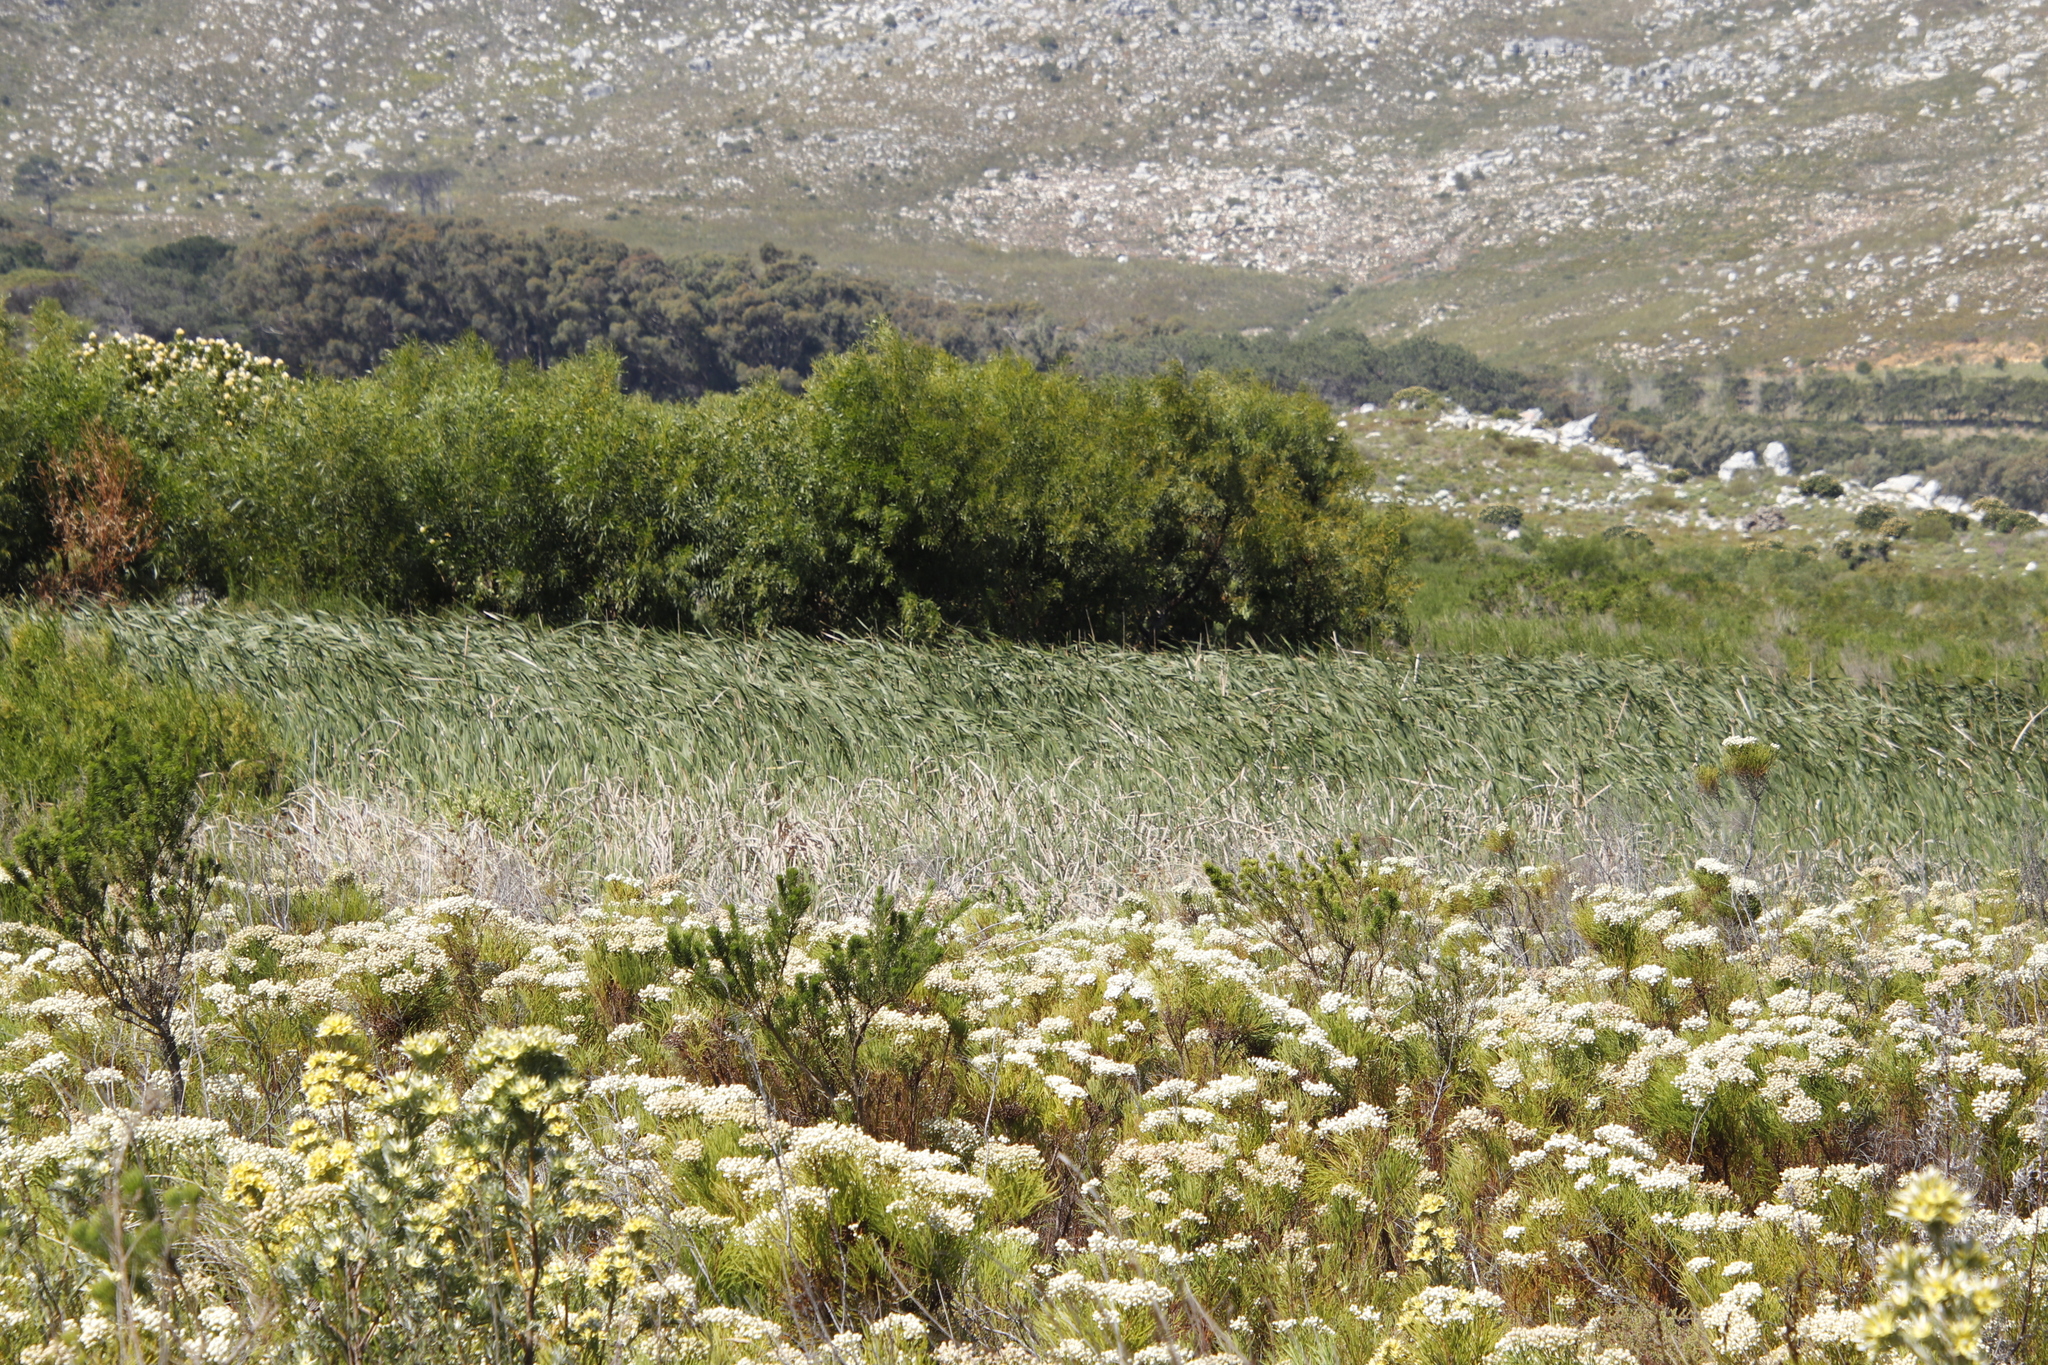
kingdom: Plantae
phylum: Tracheophyta
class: Liliopsida
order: Poales
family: Poaceae
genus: Phragmites
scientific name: Phragmites australis
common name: Common reed
